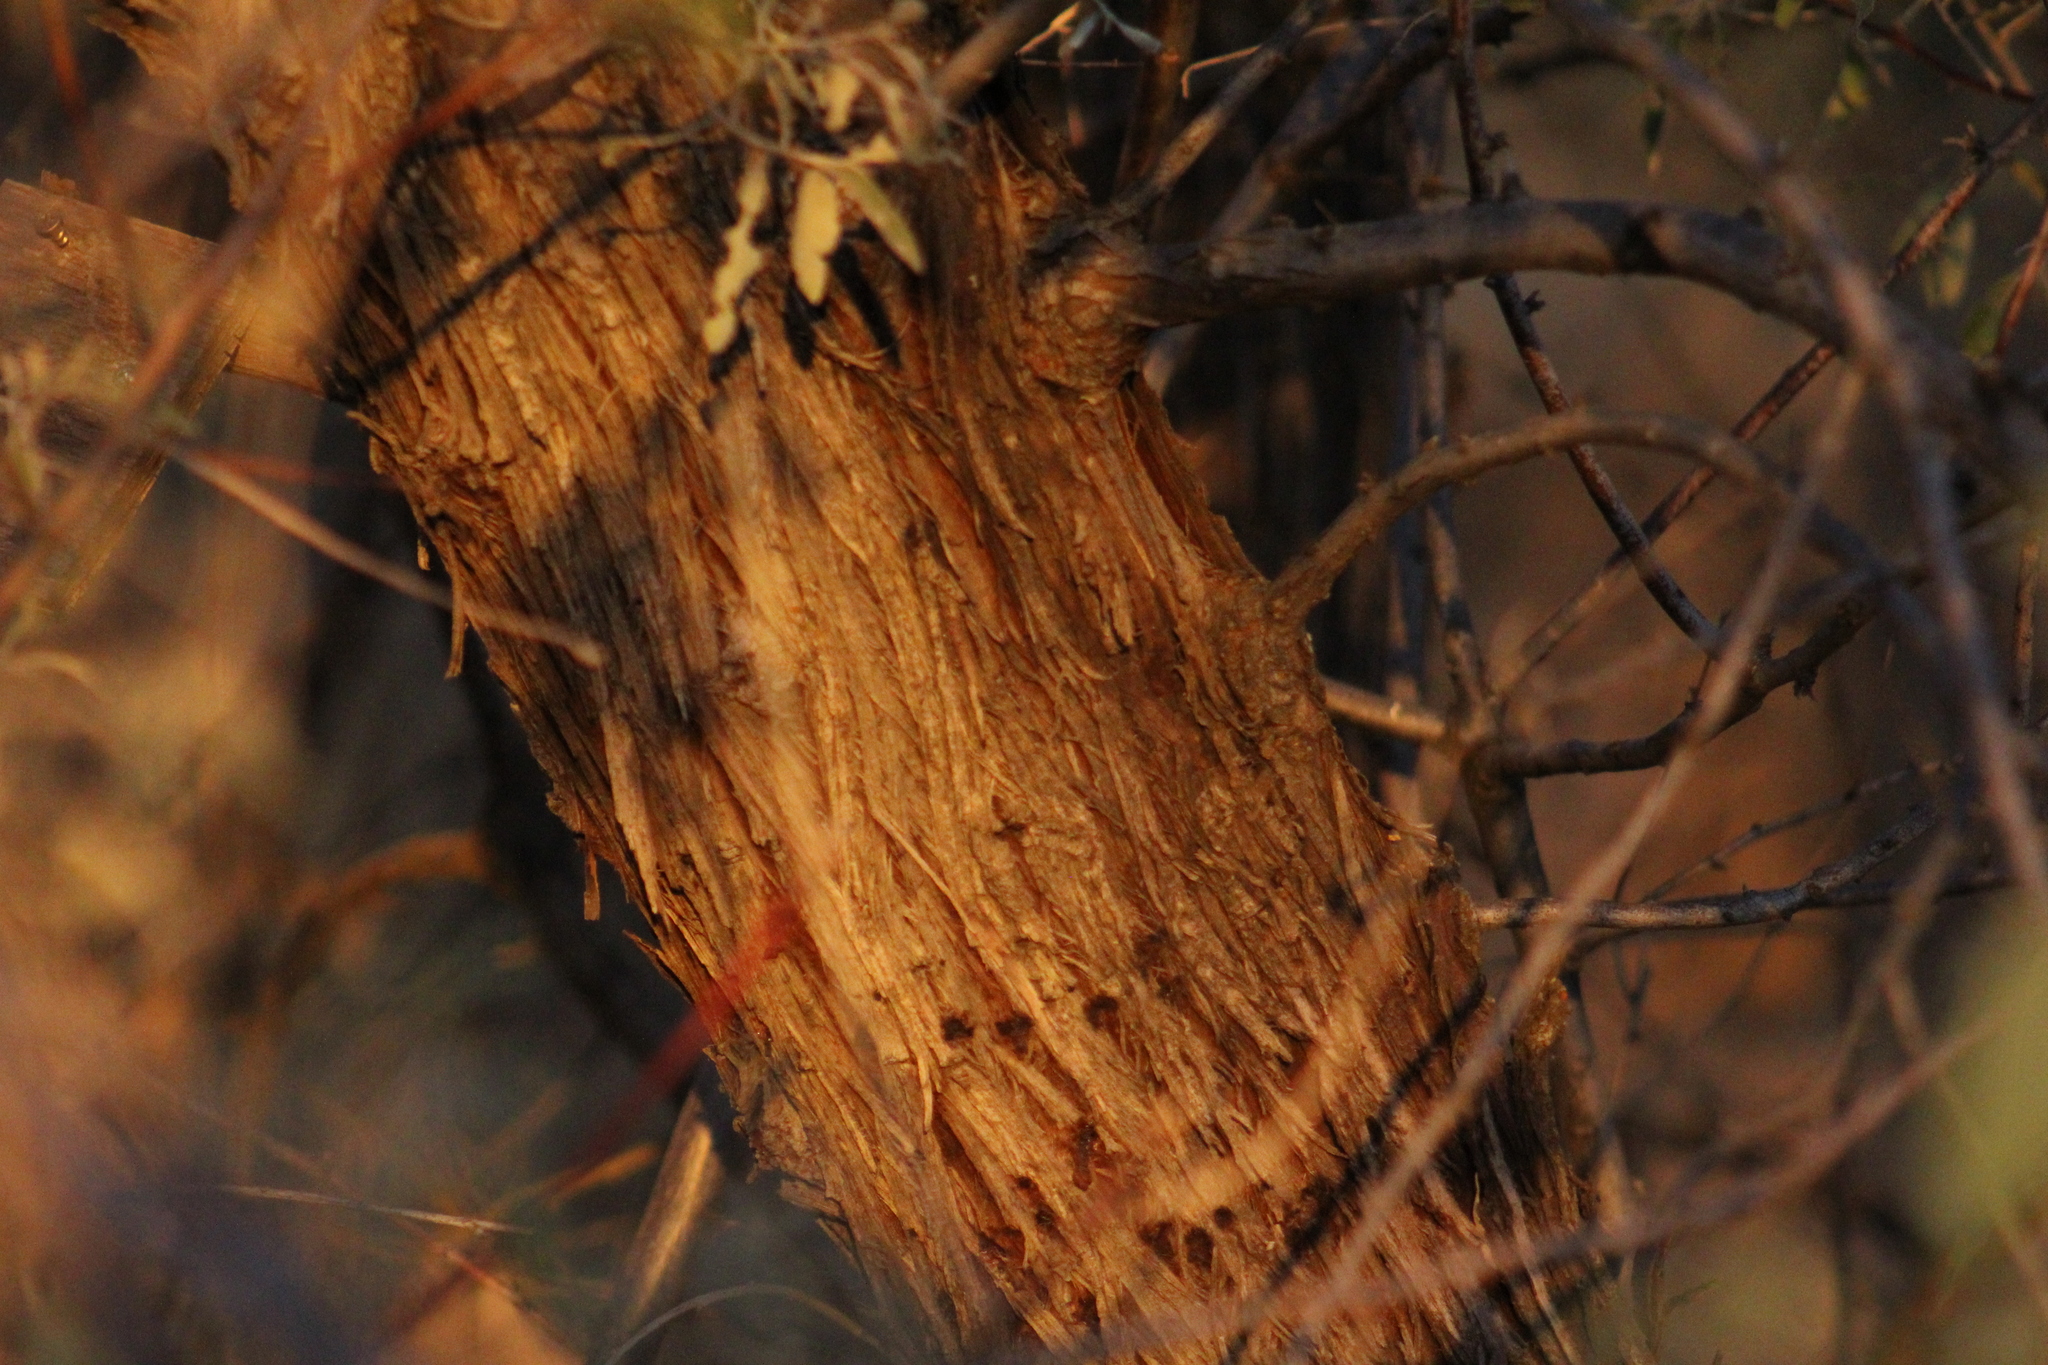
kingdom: Plantae
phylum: Tracheophyta
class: Magnoliopsida
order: Rosales
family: Elaeagnaceae
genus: Elaeagnus
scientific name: Elaeagnus angustifolia
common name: Russian olive
